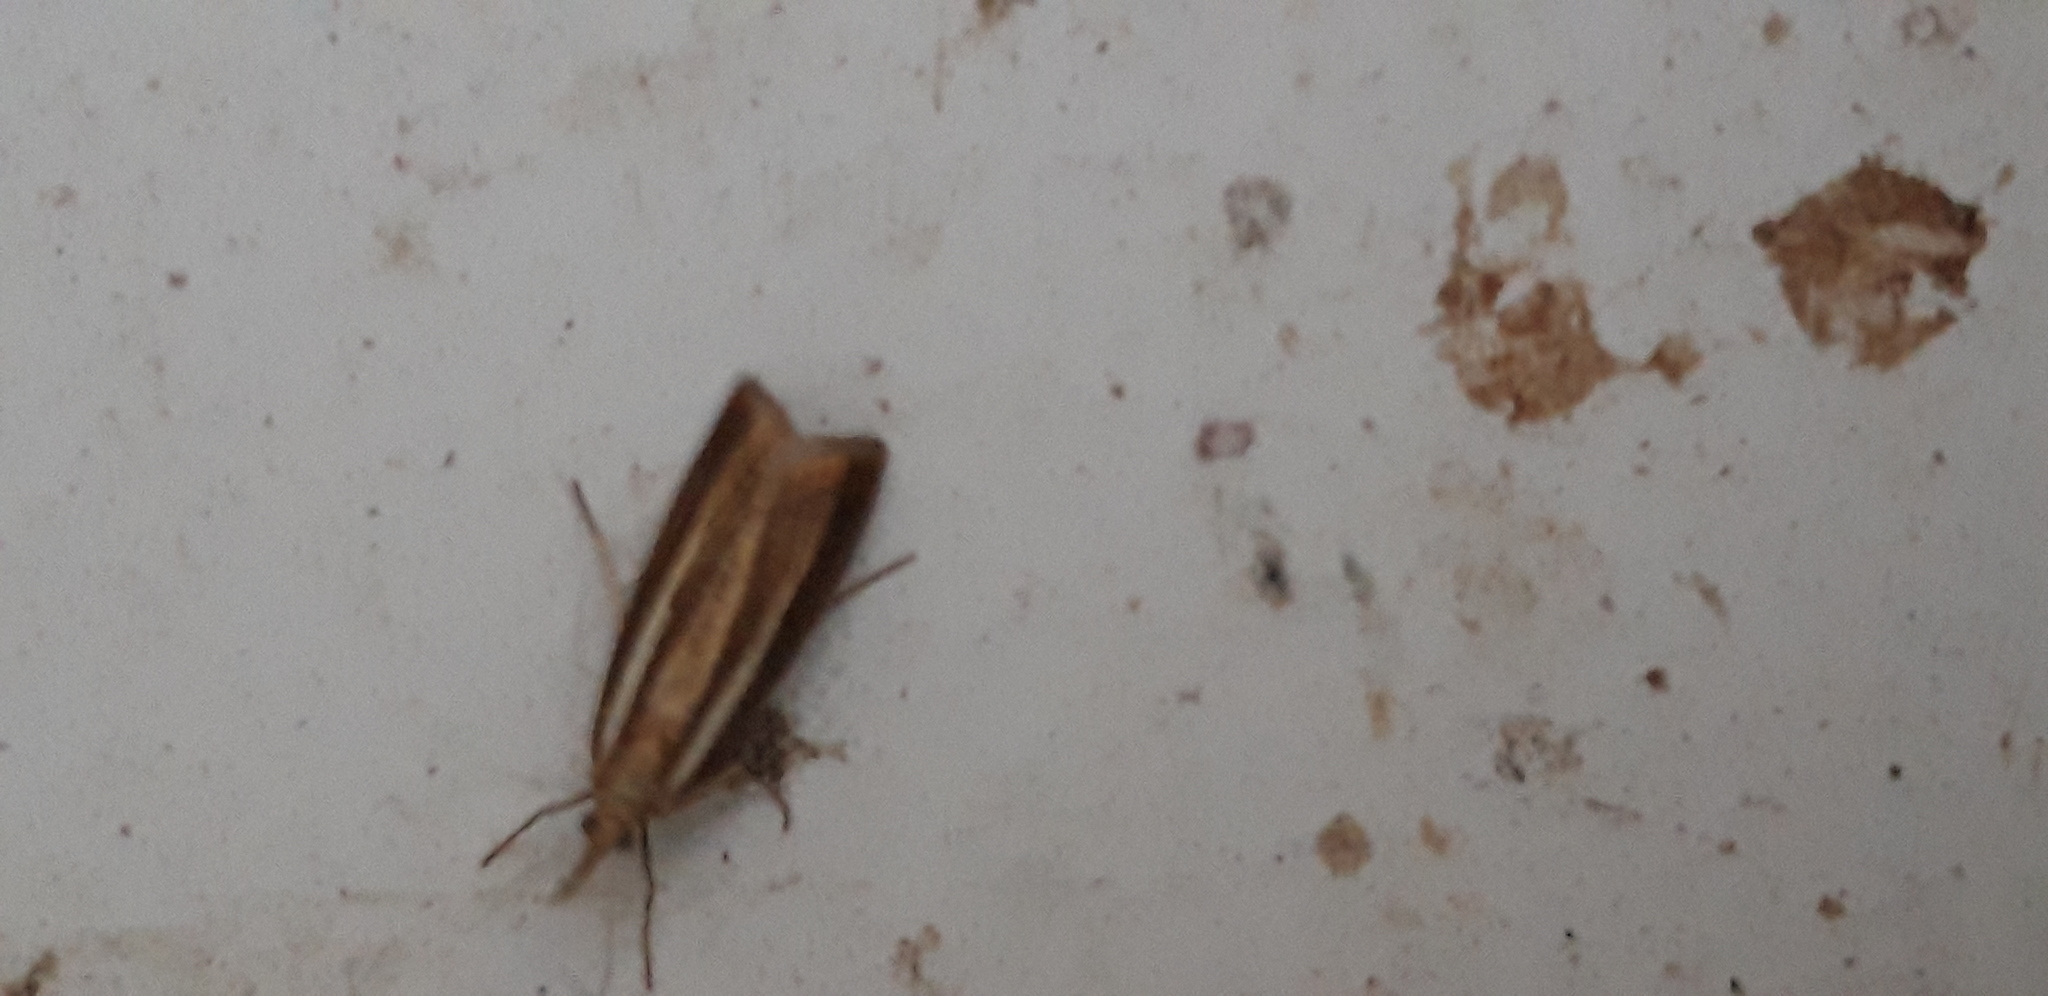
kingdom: Animalia
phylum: Arthropoda
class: Insecta
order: Lepidoptera
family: Crambidae
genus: Agriphila
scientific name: Agriphila tristellus
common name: Common grass-veneer
